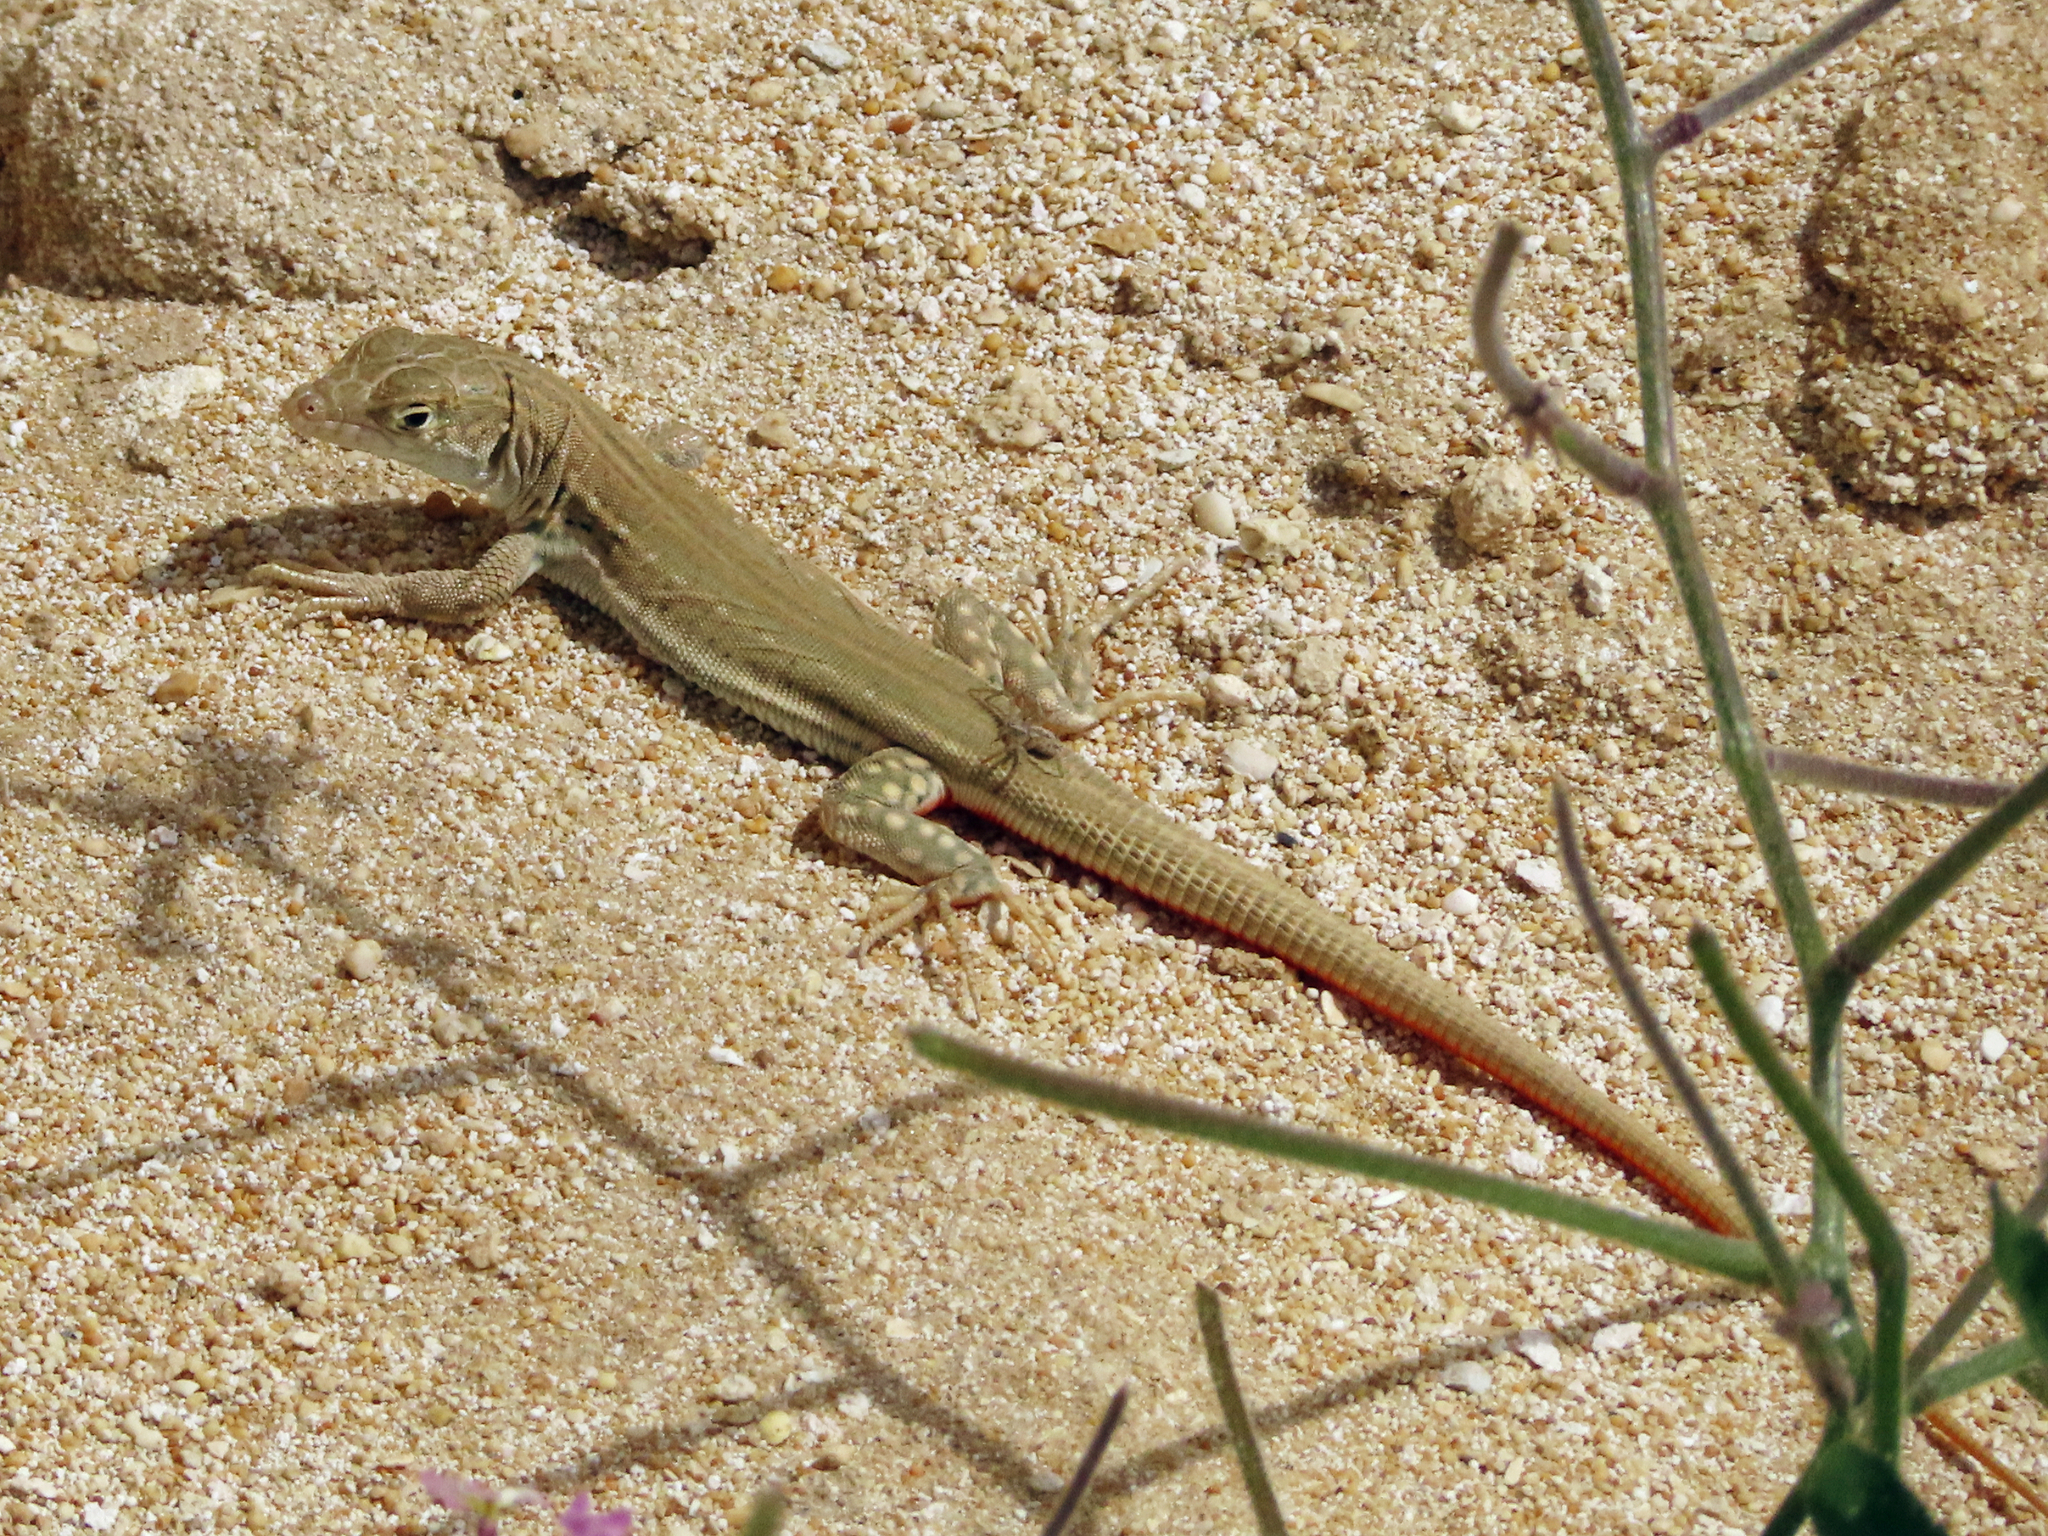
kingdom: Animalia
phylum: Chordata
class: Squamata
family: Lacertidae
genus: Eremias
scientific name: Eremias velox
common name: Central asian racerunner
